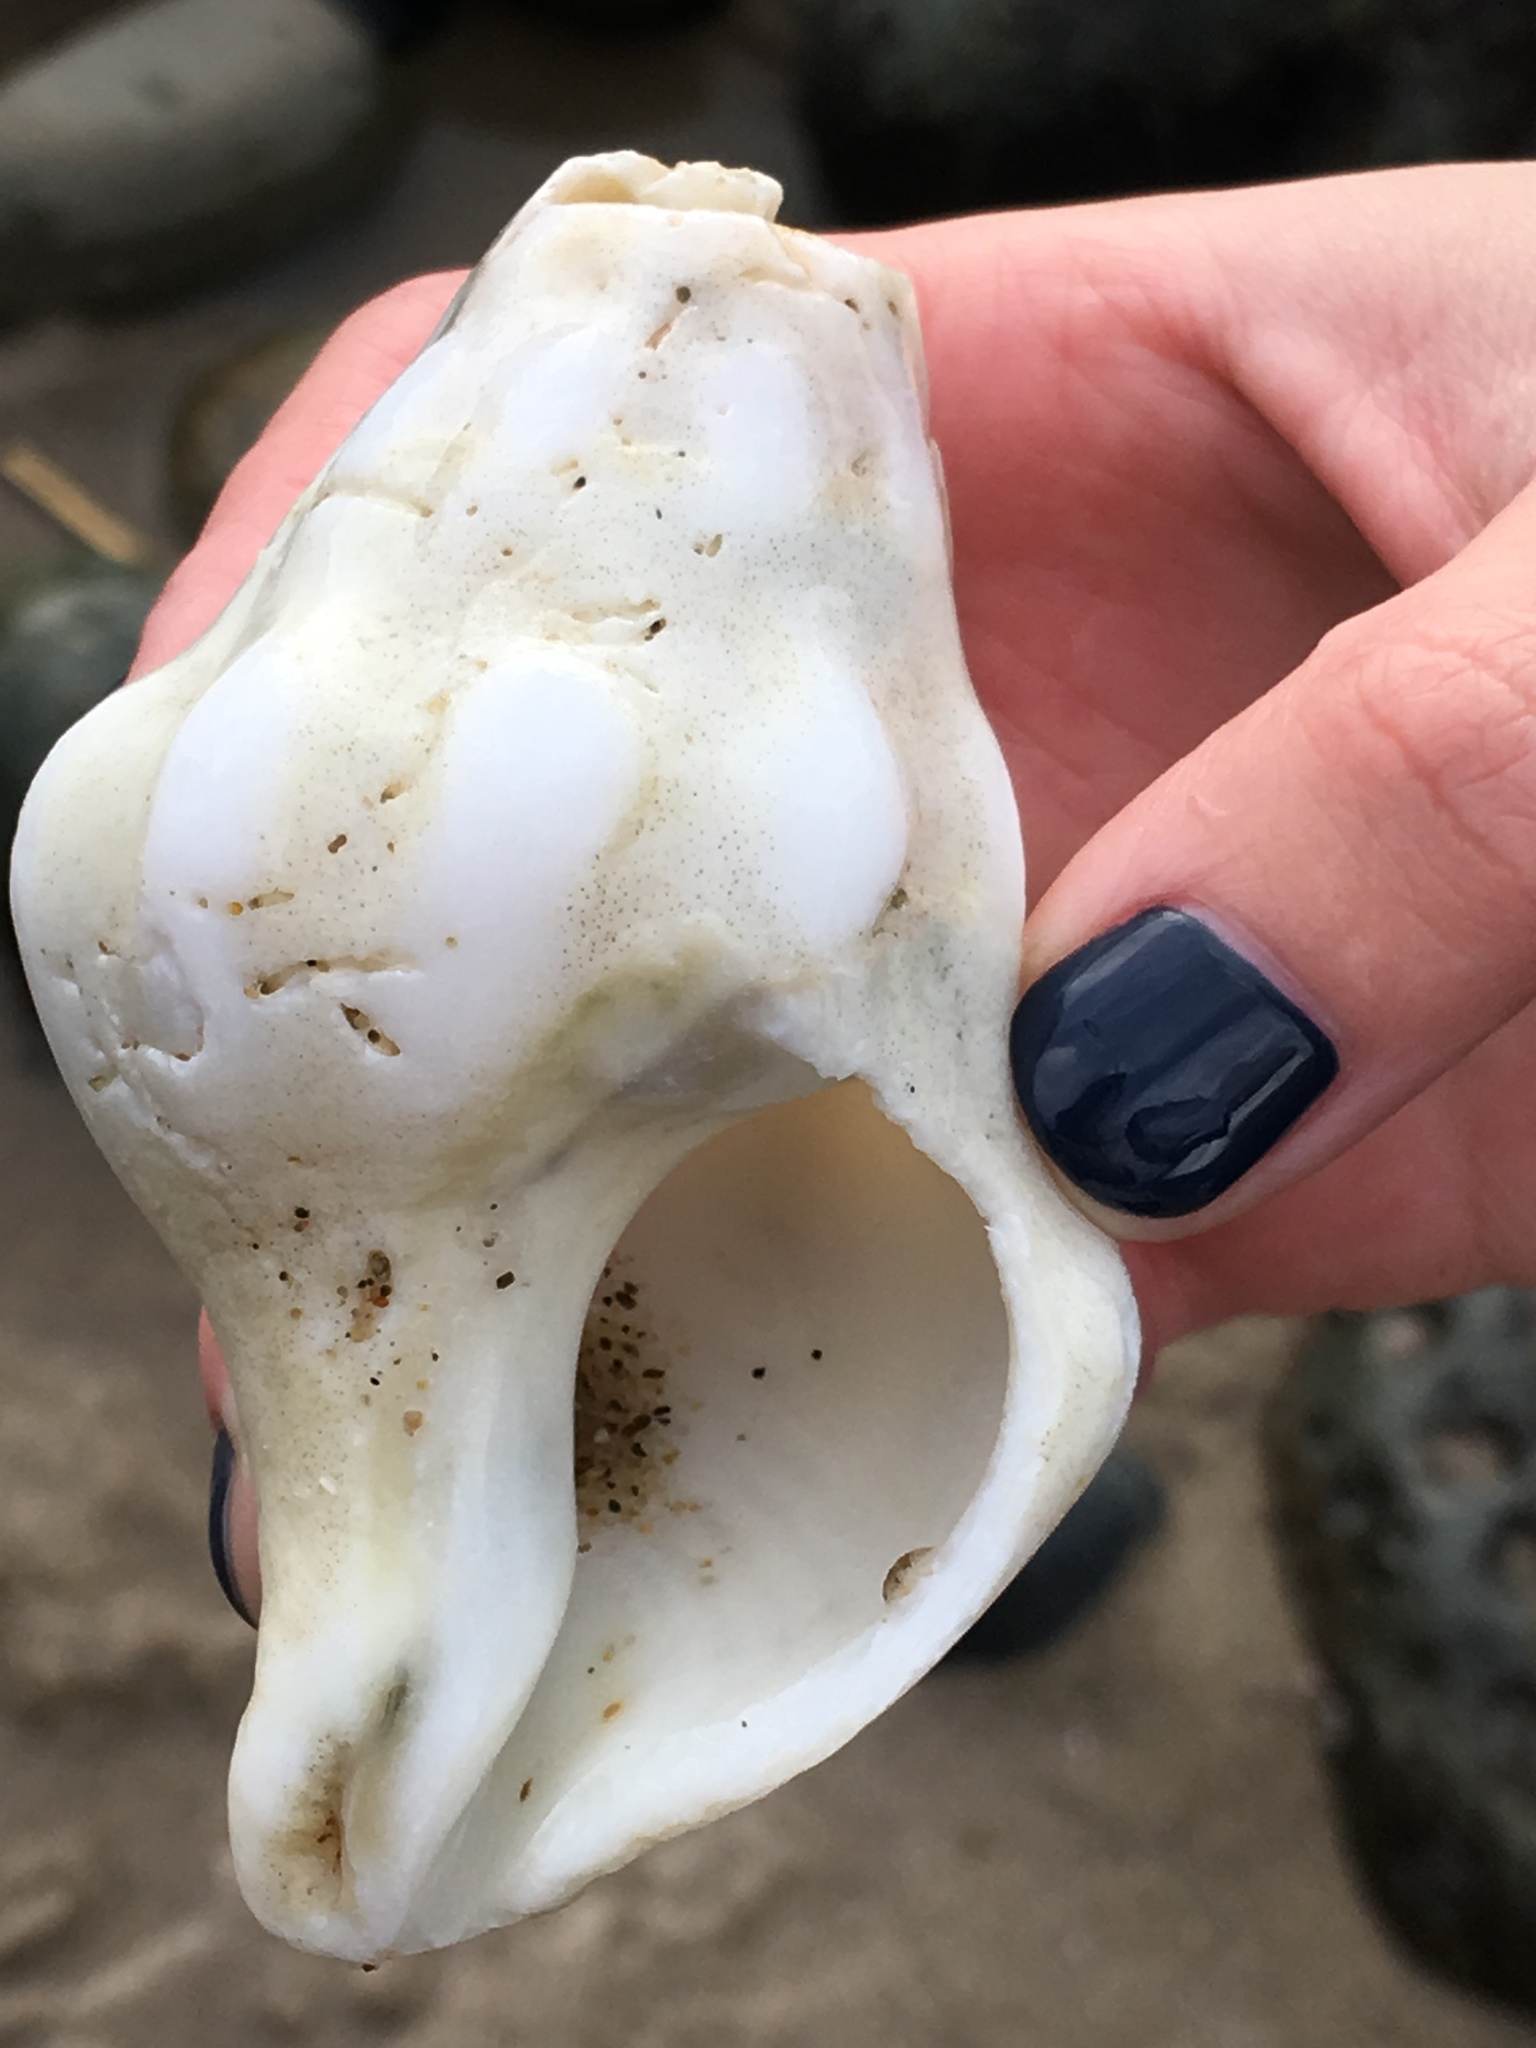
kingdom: Animalia
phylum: Mollusca
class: Gastropoda
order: Neogastropoda
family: Austrosiphonidae
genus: Kelletia
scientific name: Kelletia kelletii
